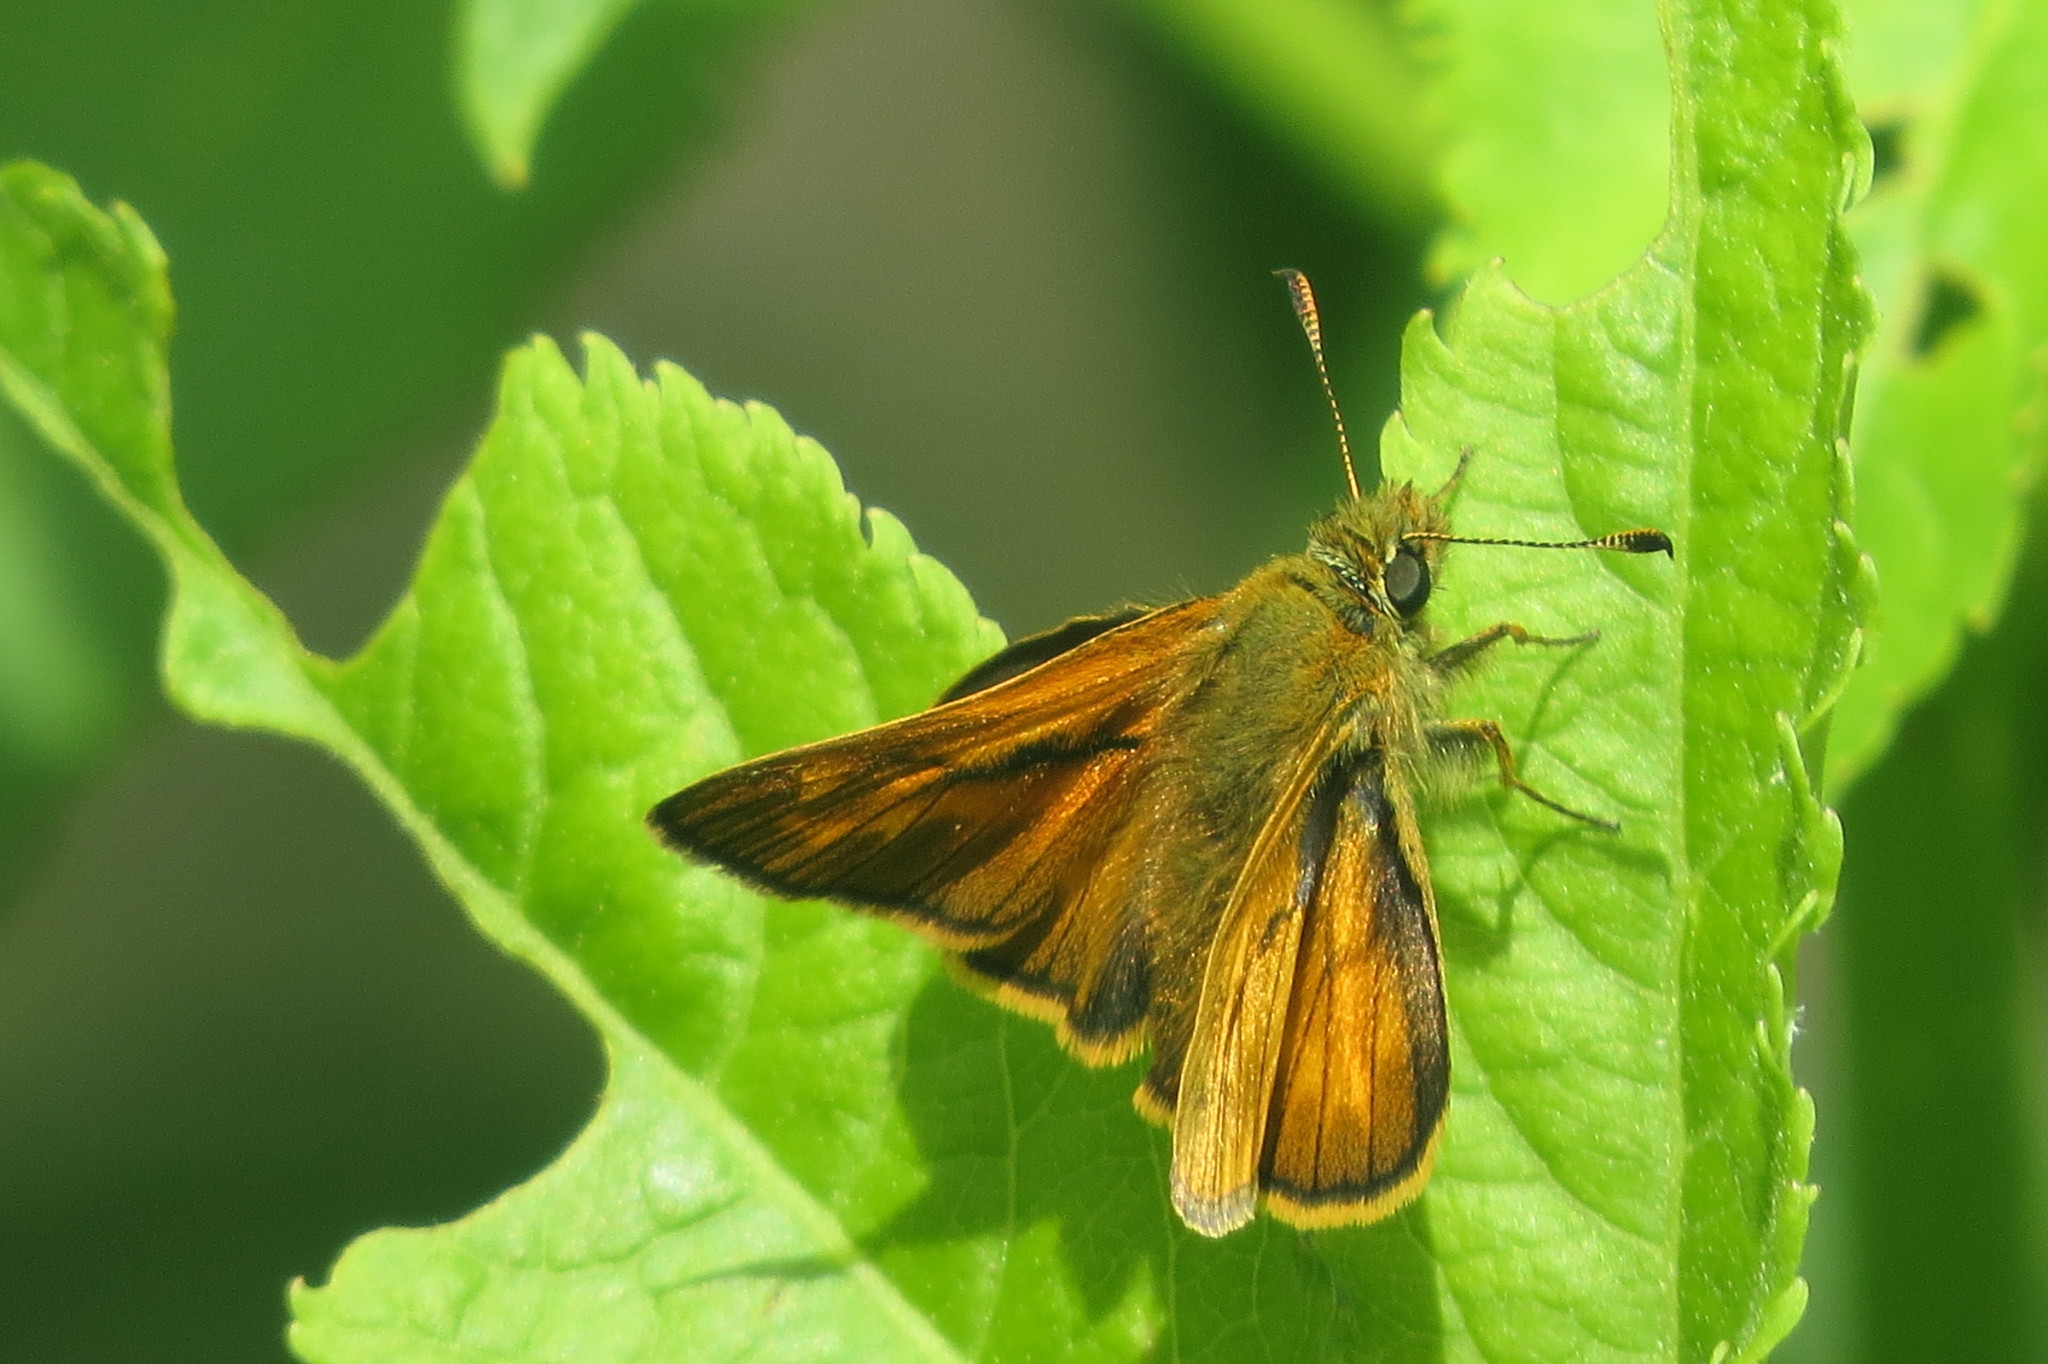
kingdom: Animalia
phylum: Arthropoda
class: Insecta
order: Lepidoptera
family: Hesperiidae
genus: Ochlodes
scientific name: Ochlodes venata
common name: Large skipper
